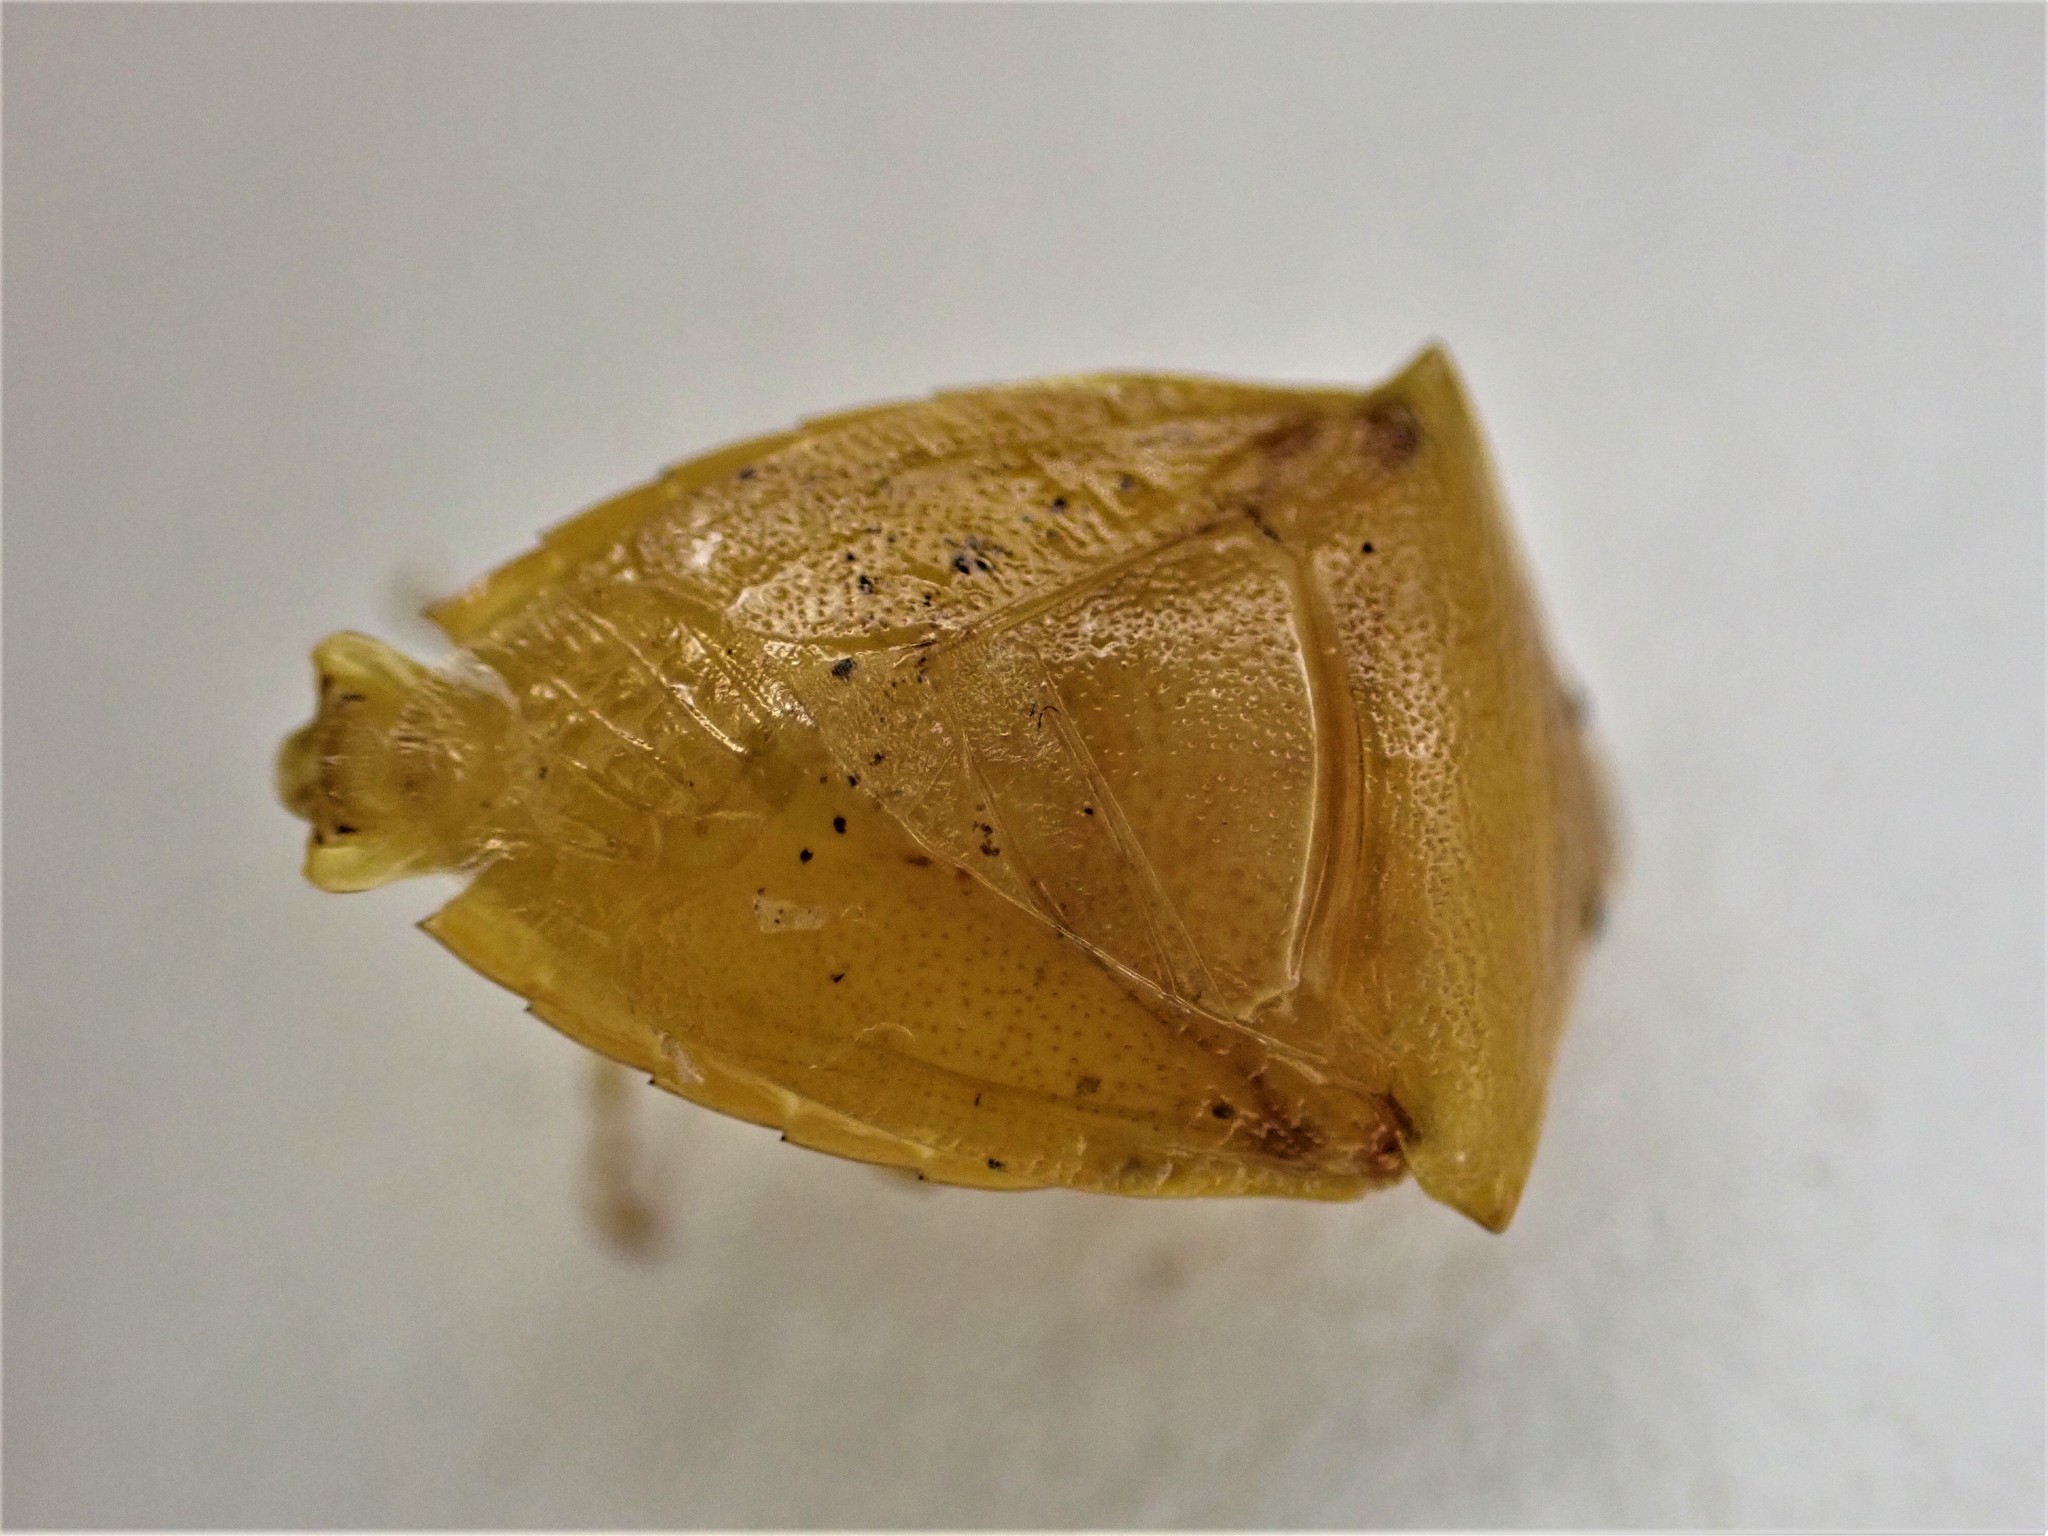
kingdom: Animalia
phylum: Arthropoda
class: Insecta
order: Hemiptera
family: Pentatomidae
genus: Cuspicona
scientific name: Cuspicona simplex
